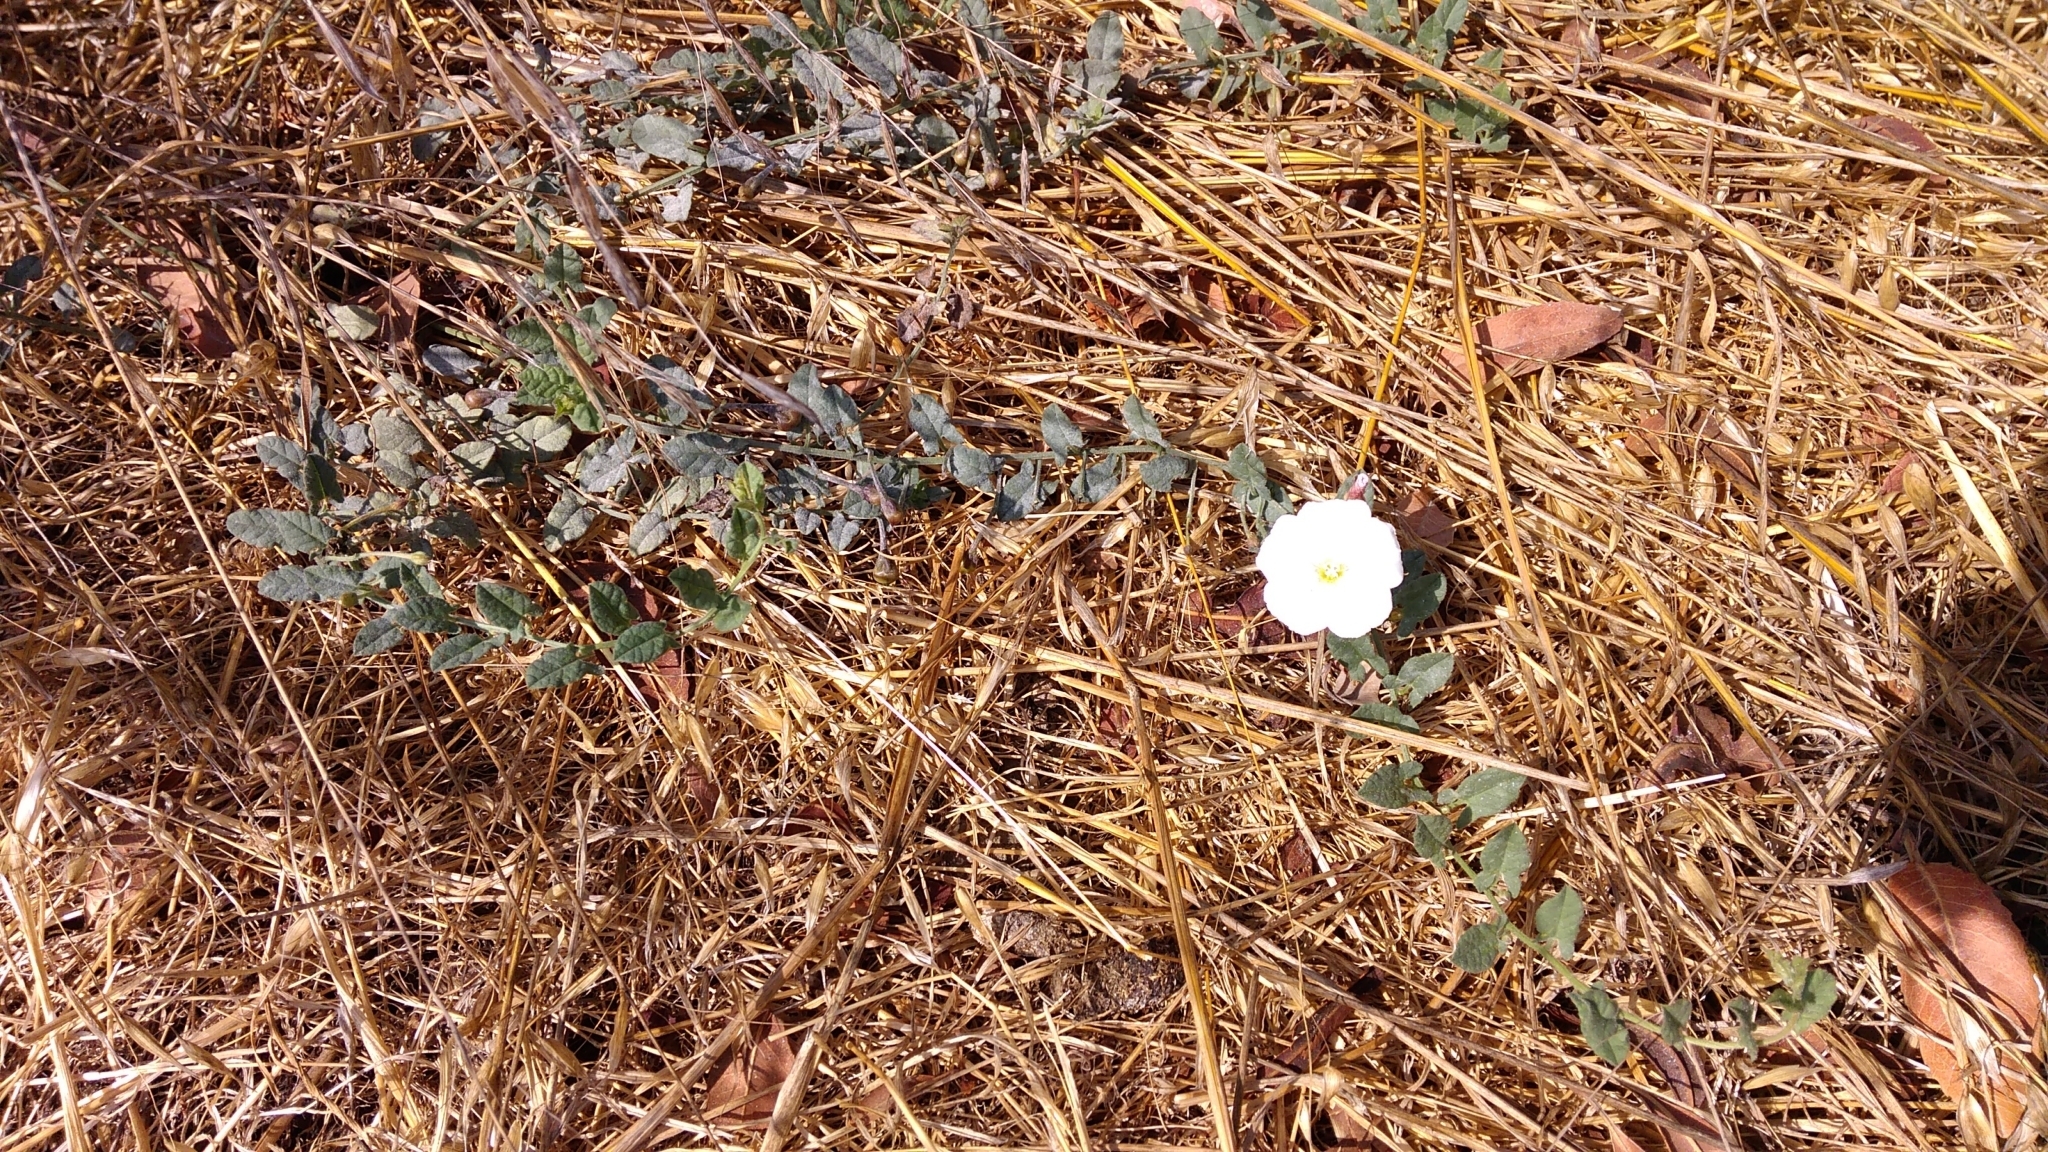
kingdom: Plantae
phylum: Tracheophyta
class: Magnoliopsida
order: Solanales
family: Convolvulaceae
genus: Convolvulus
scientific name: Convolvulus arvensis
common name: Field bindweed
